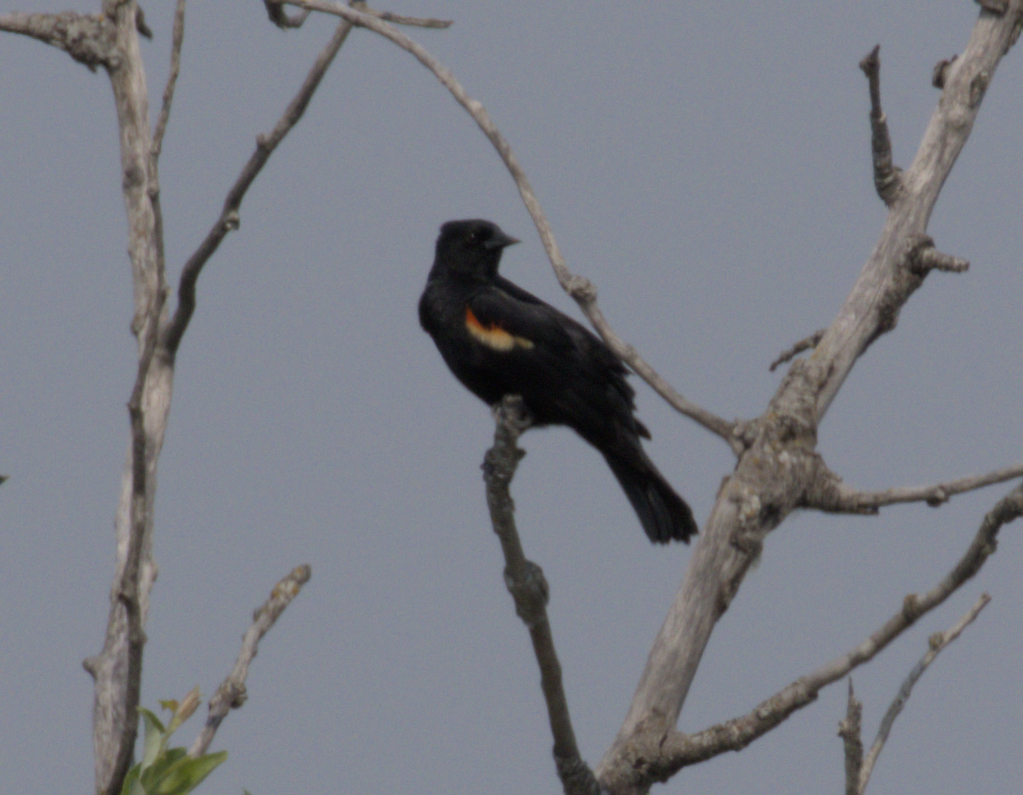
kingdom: Animalia
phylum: Chordata
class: Aves
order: Passeriformes
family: Icteridae
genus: Agelaius
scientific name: Agelaius phoeniceus
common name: Red-winged blackbird
